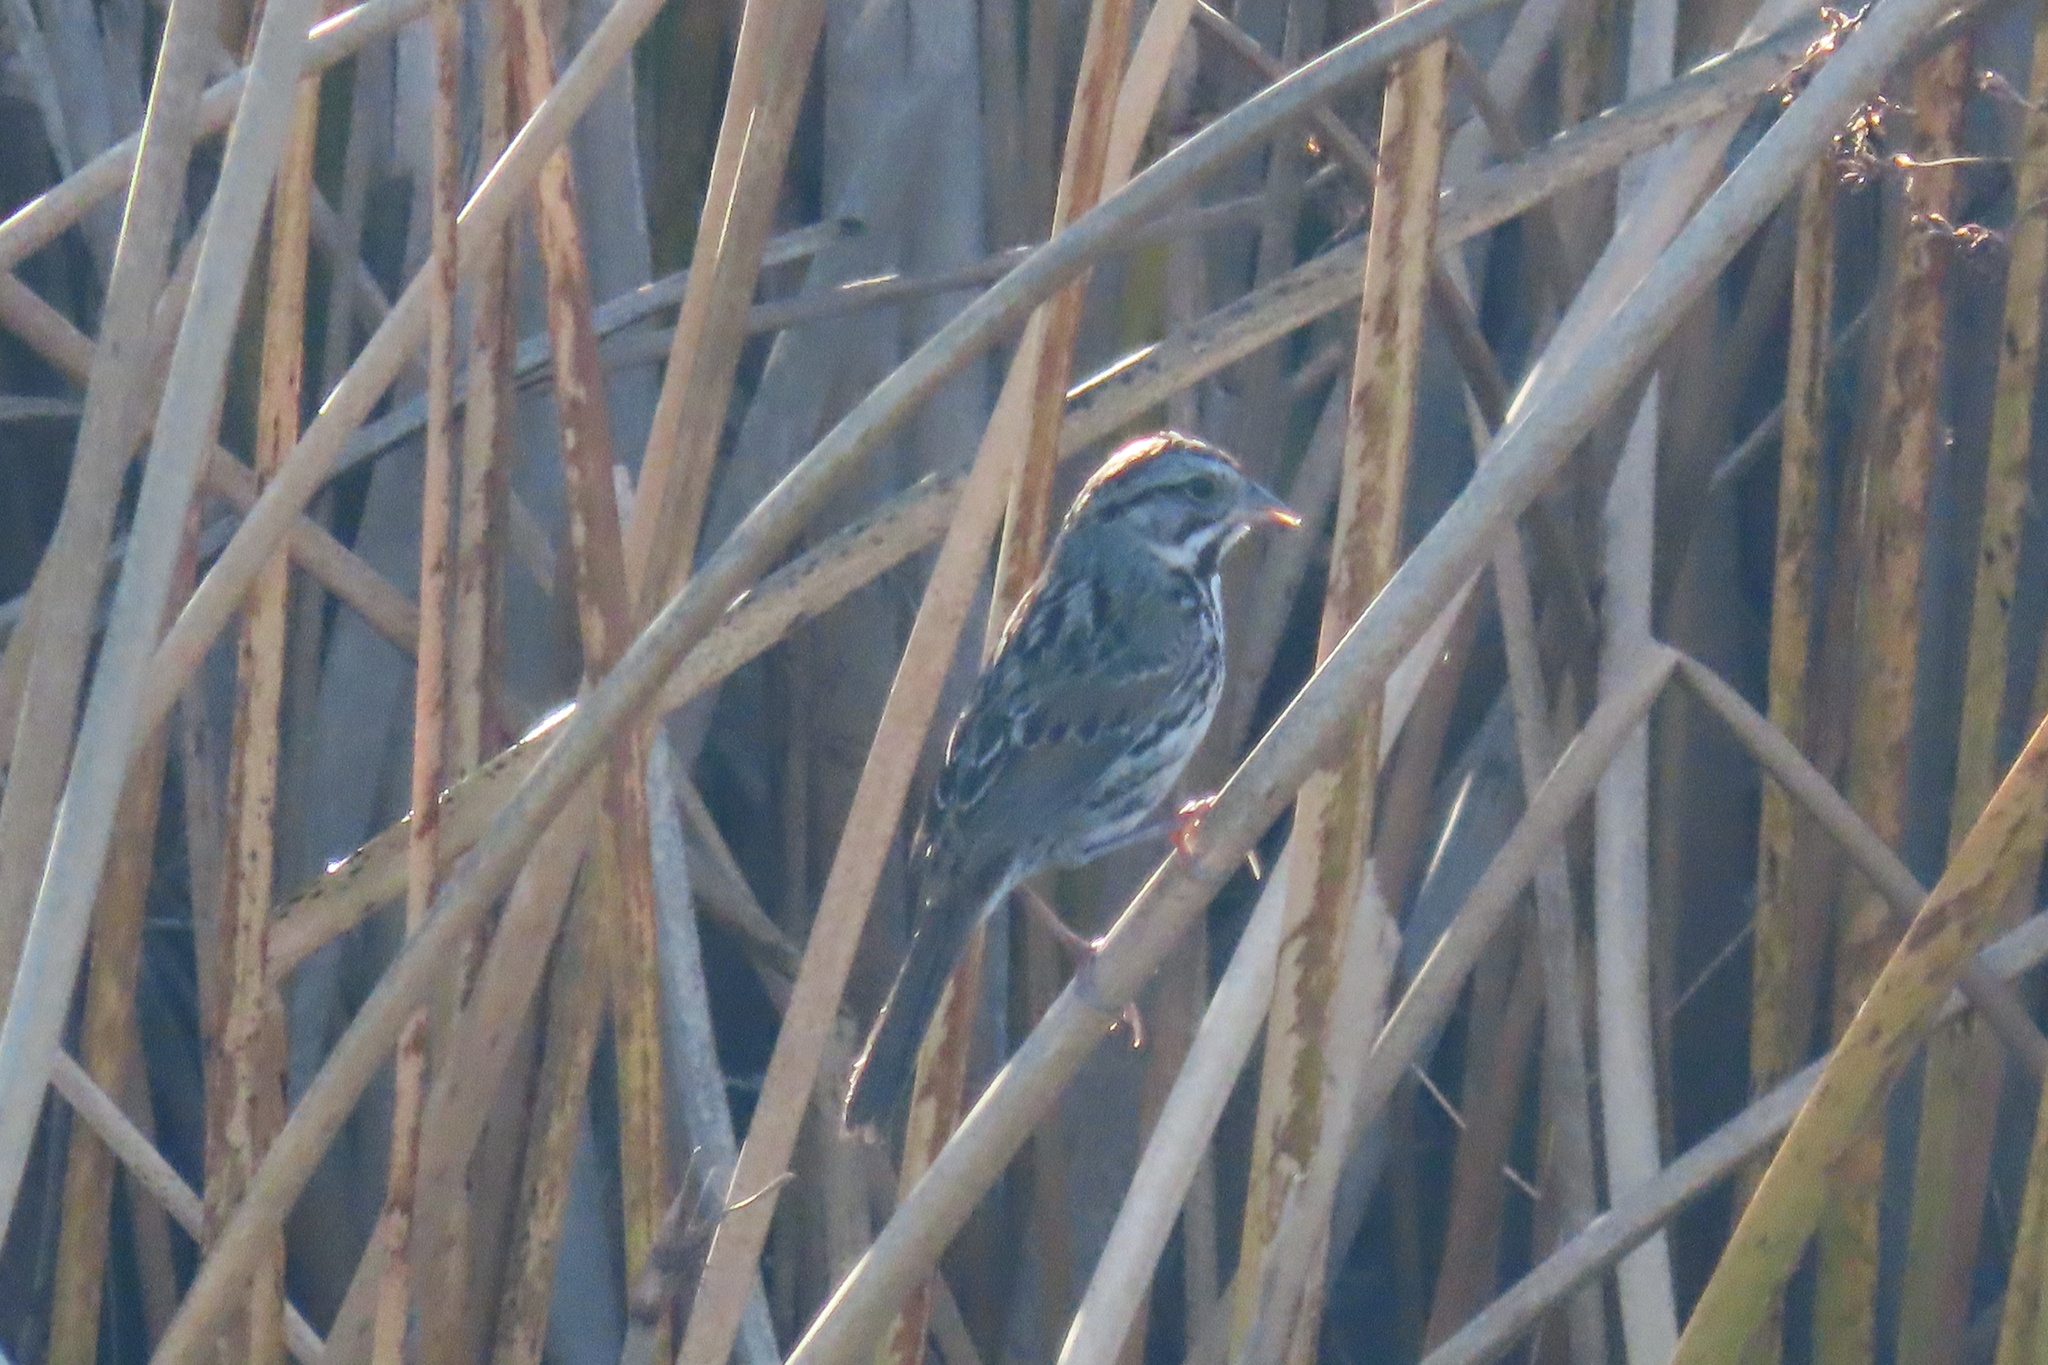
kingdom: Animalia
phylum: Chordata
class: Aves
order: Passeriformes
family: Passerellidae
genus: Melospiza
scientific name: Melospiza melodia
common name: Song sparrow
